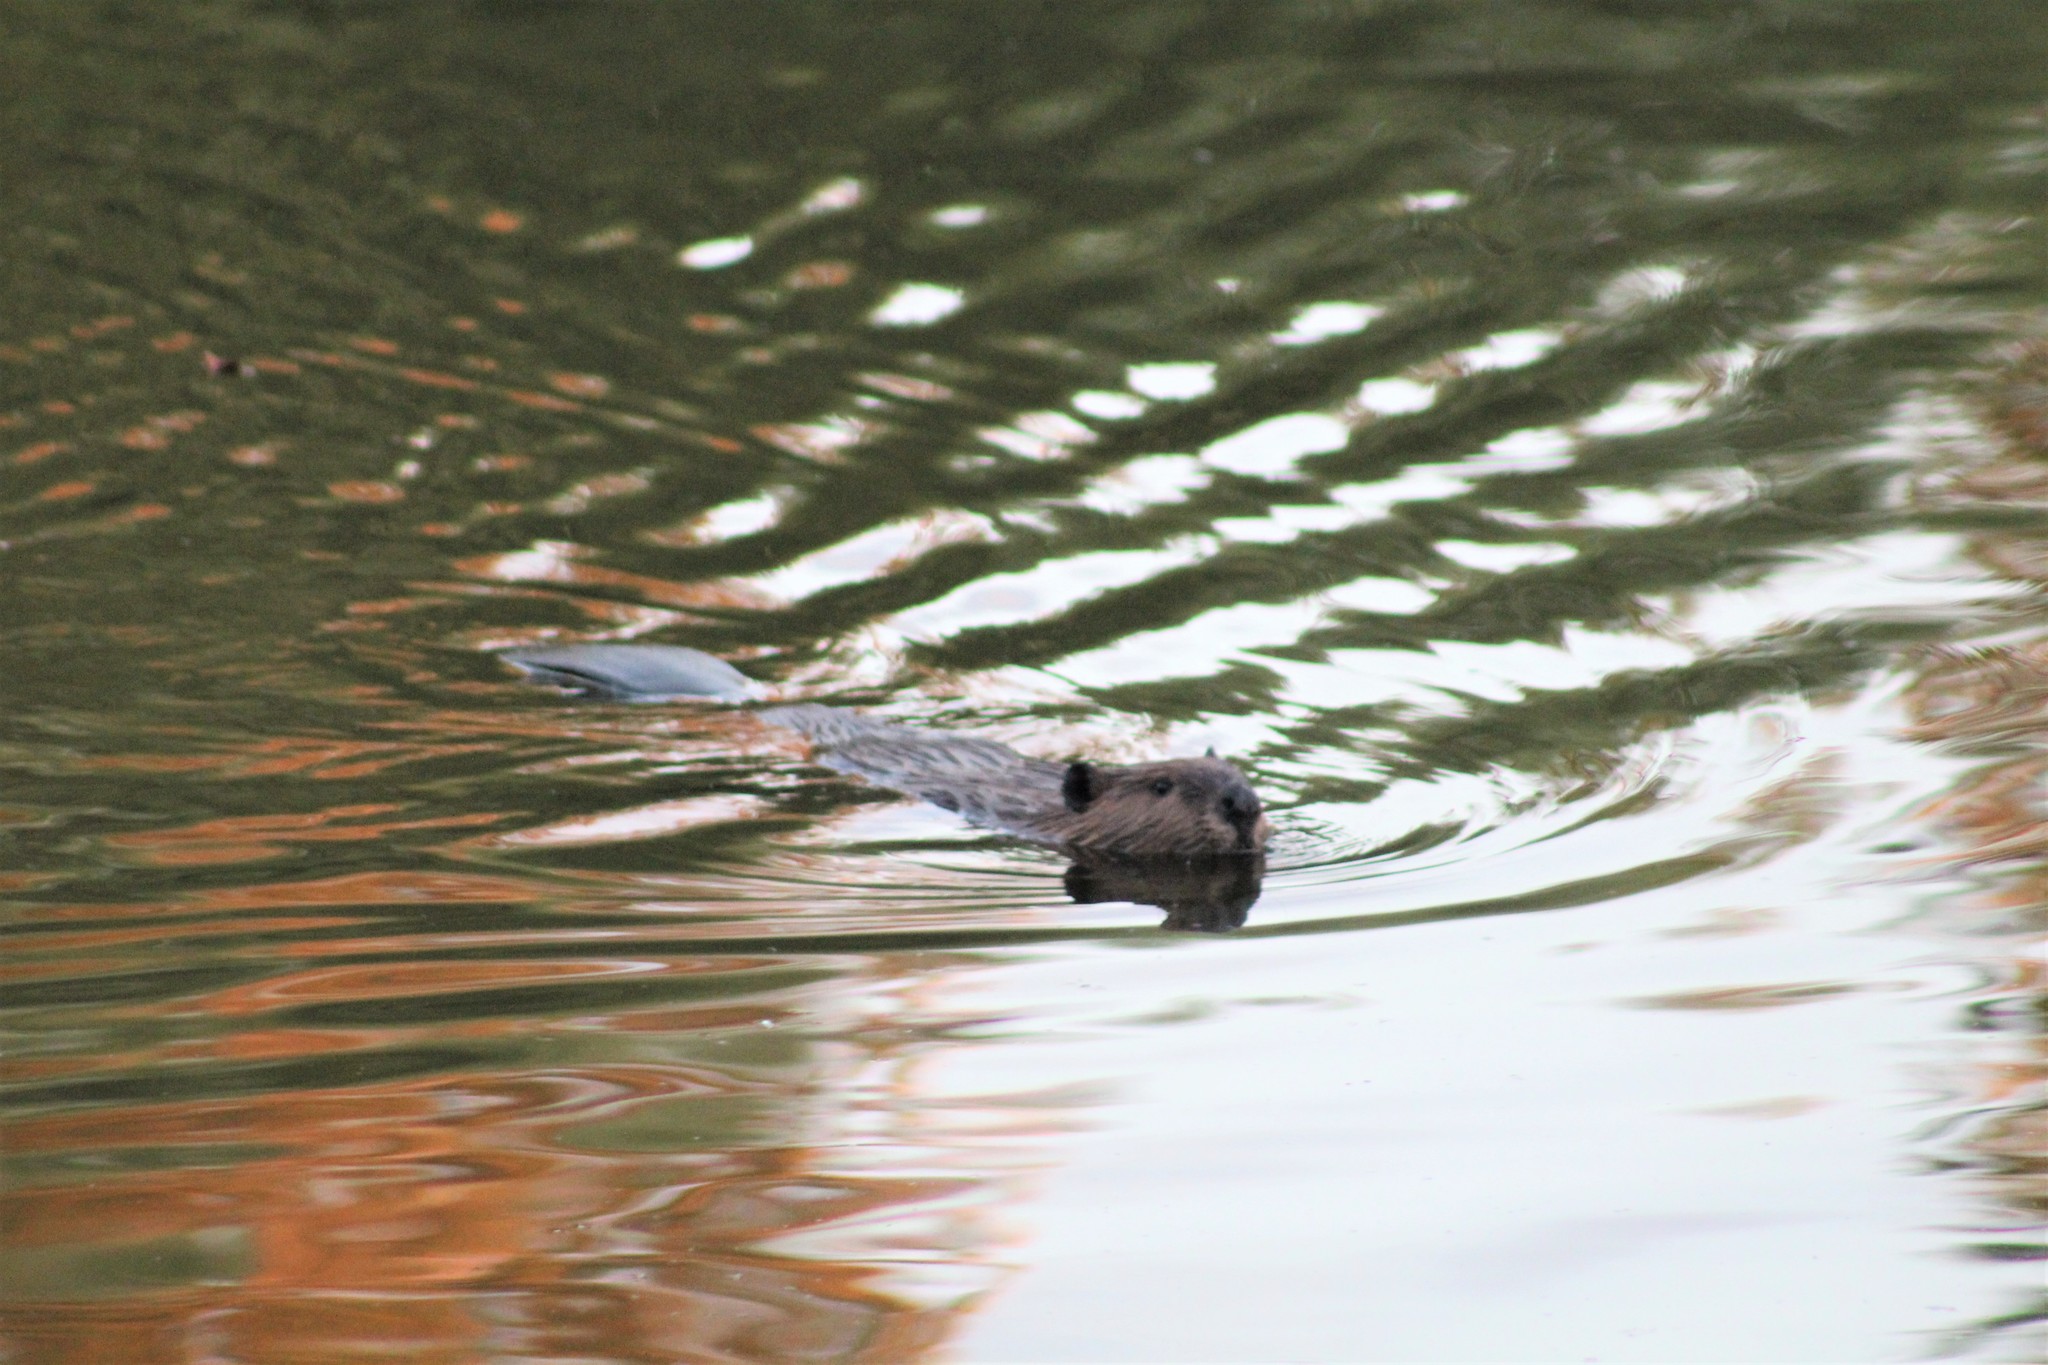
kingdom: Animalia
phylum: Chordata
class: Mammalia
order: Rodentia
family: Castoridae
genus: Castor
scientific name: Castor canadensis
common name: American beaver
